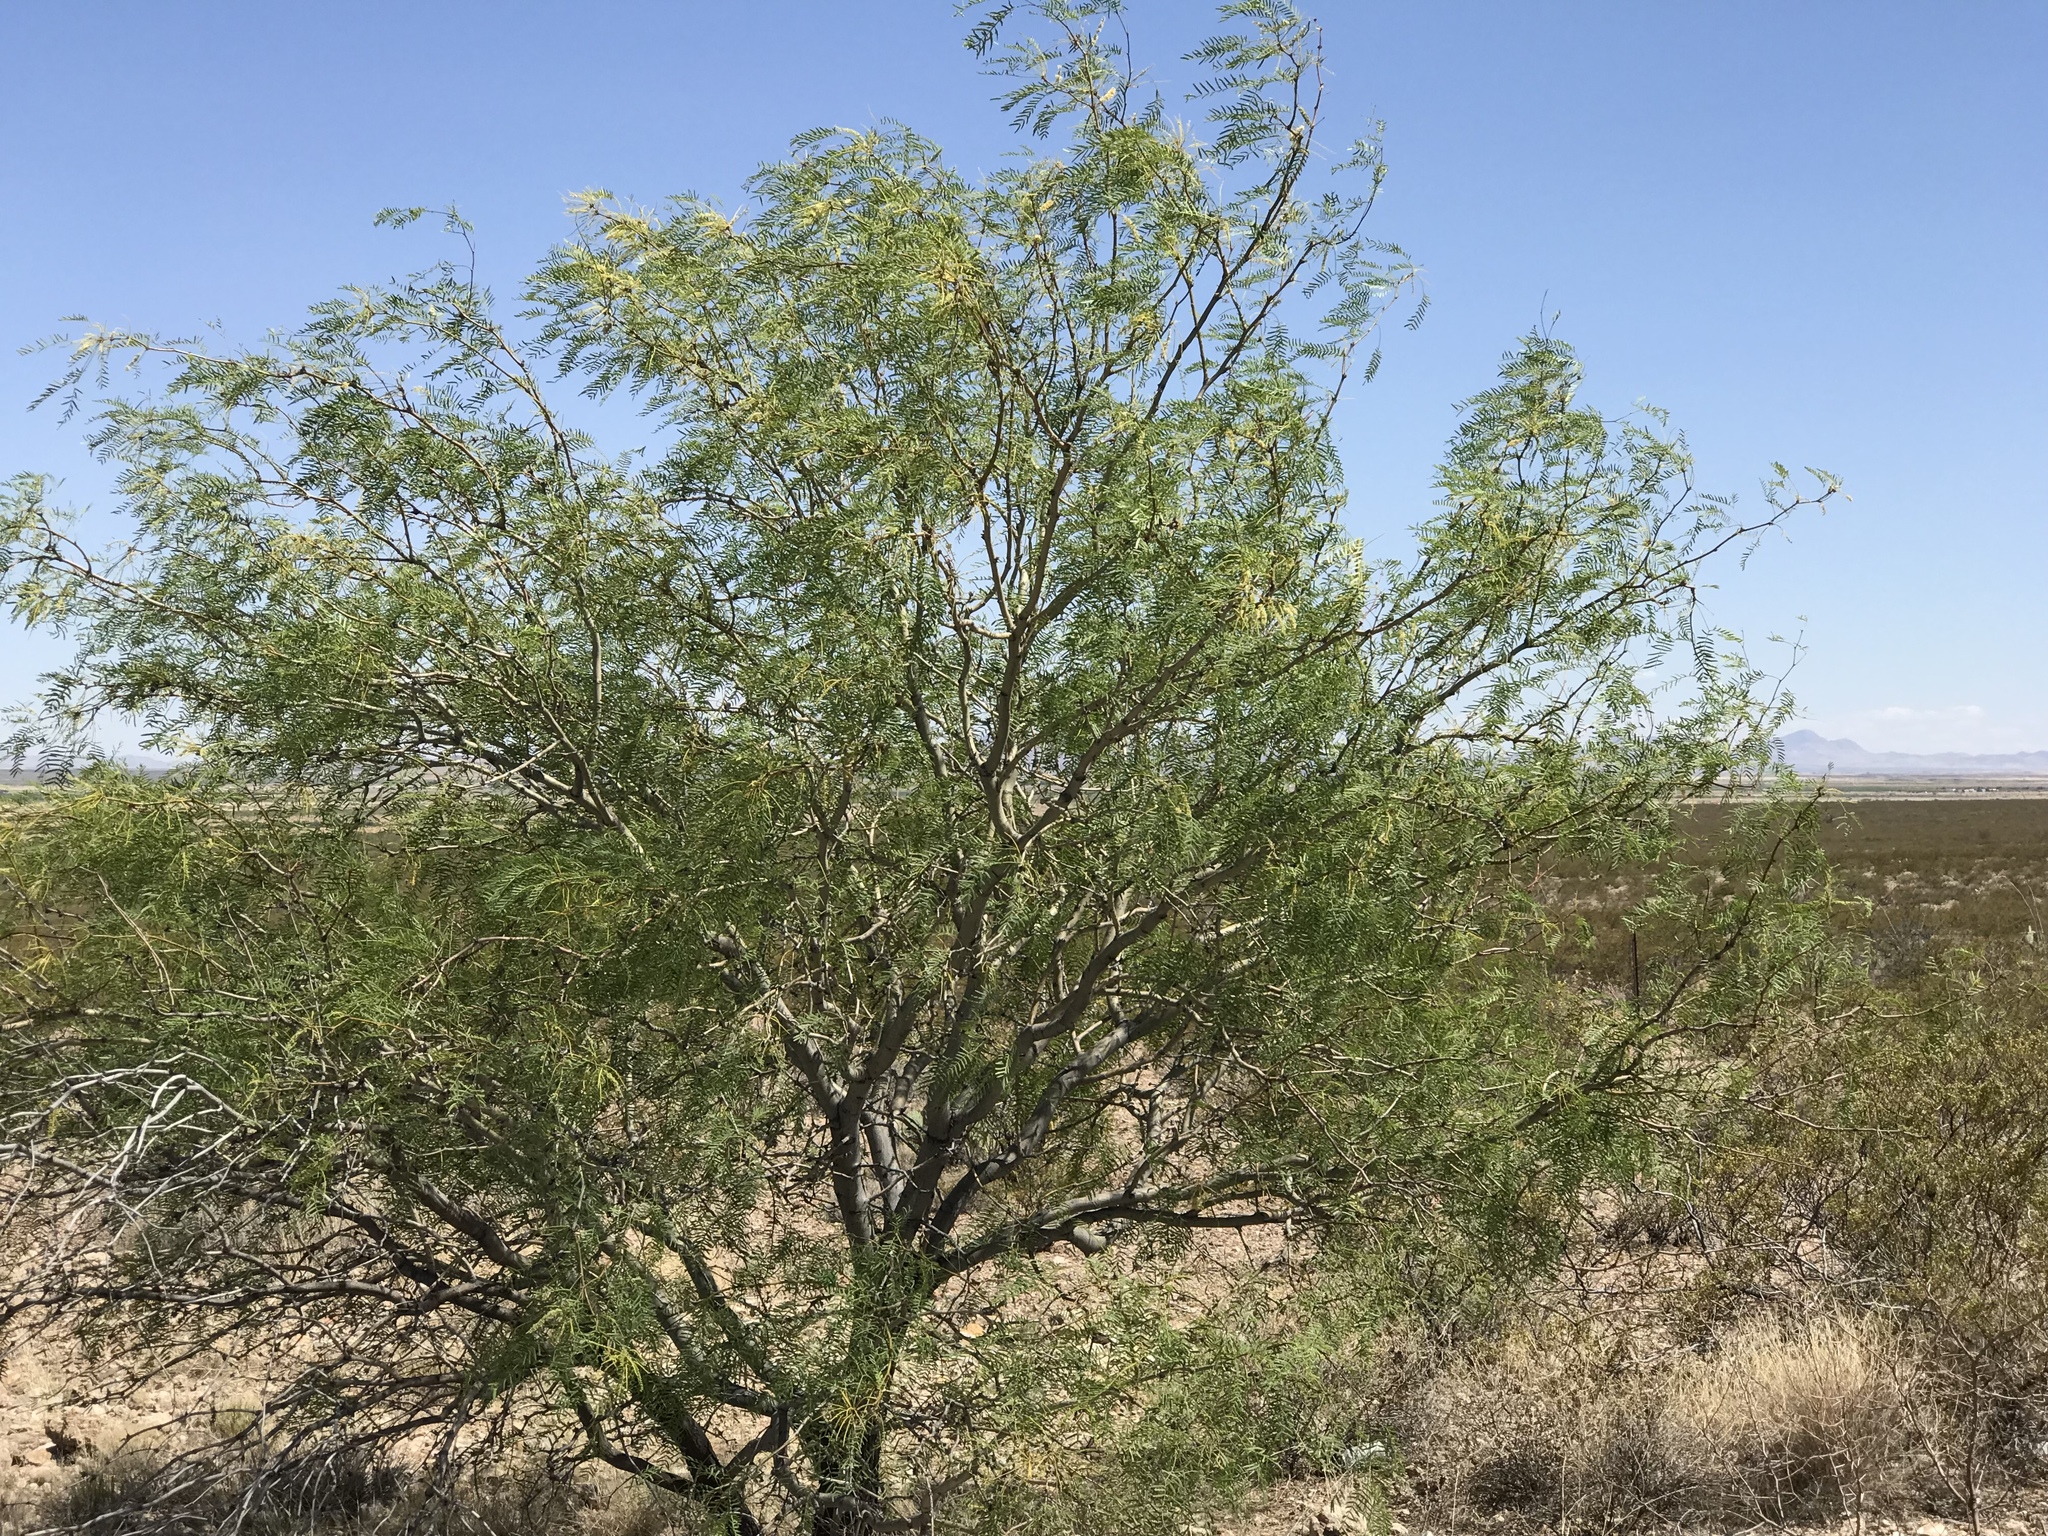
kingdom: Plantae
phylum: Tracheophyta
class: Magnoliopsida
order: Fabales
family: Fabaceae
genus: Prosopis
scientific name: Prosopis glandulosa
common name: Honey mesquite
